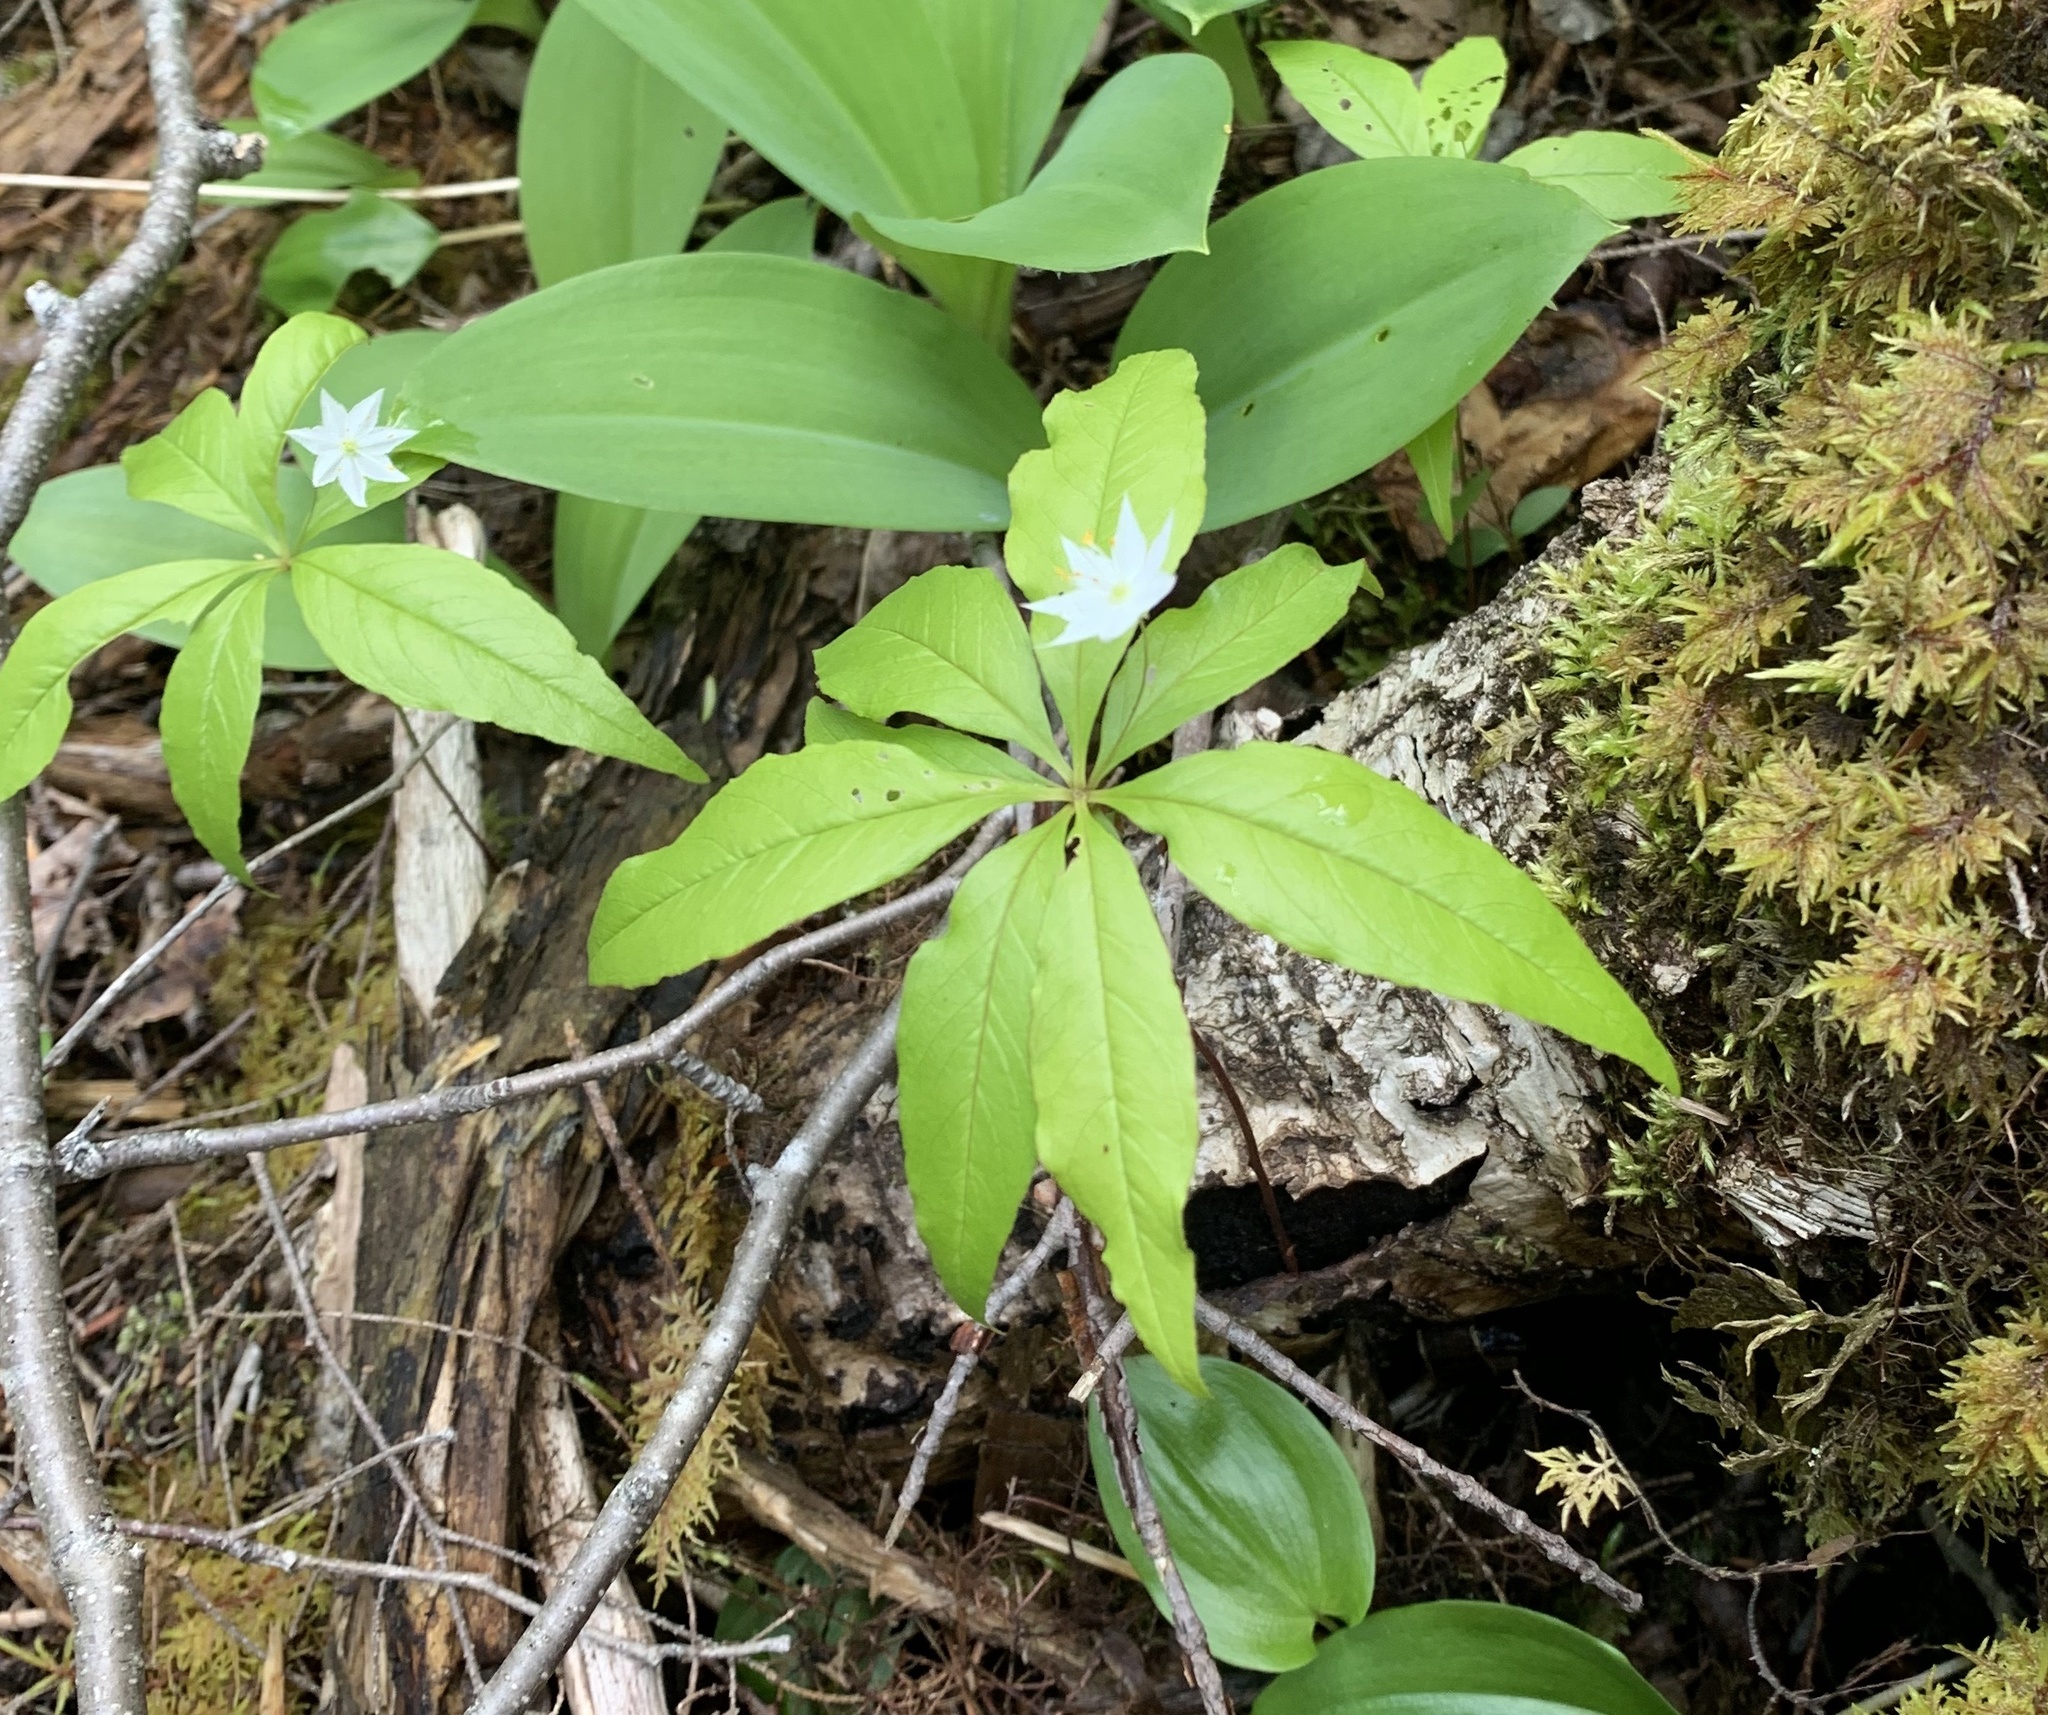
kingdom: Plantae
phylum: Tracheophyta
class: Magnoliopsida
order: Ericales
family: Primulaceae
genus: Lysimachia
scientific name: Lysimachia borealis
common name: American starflower
